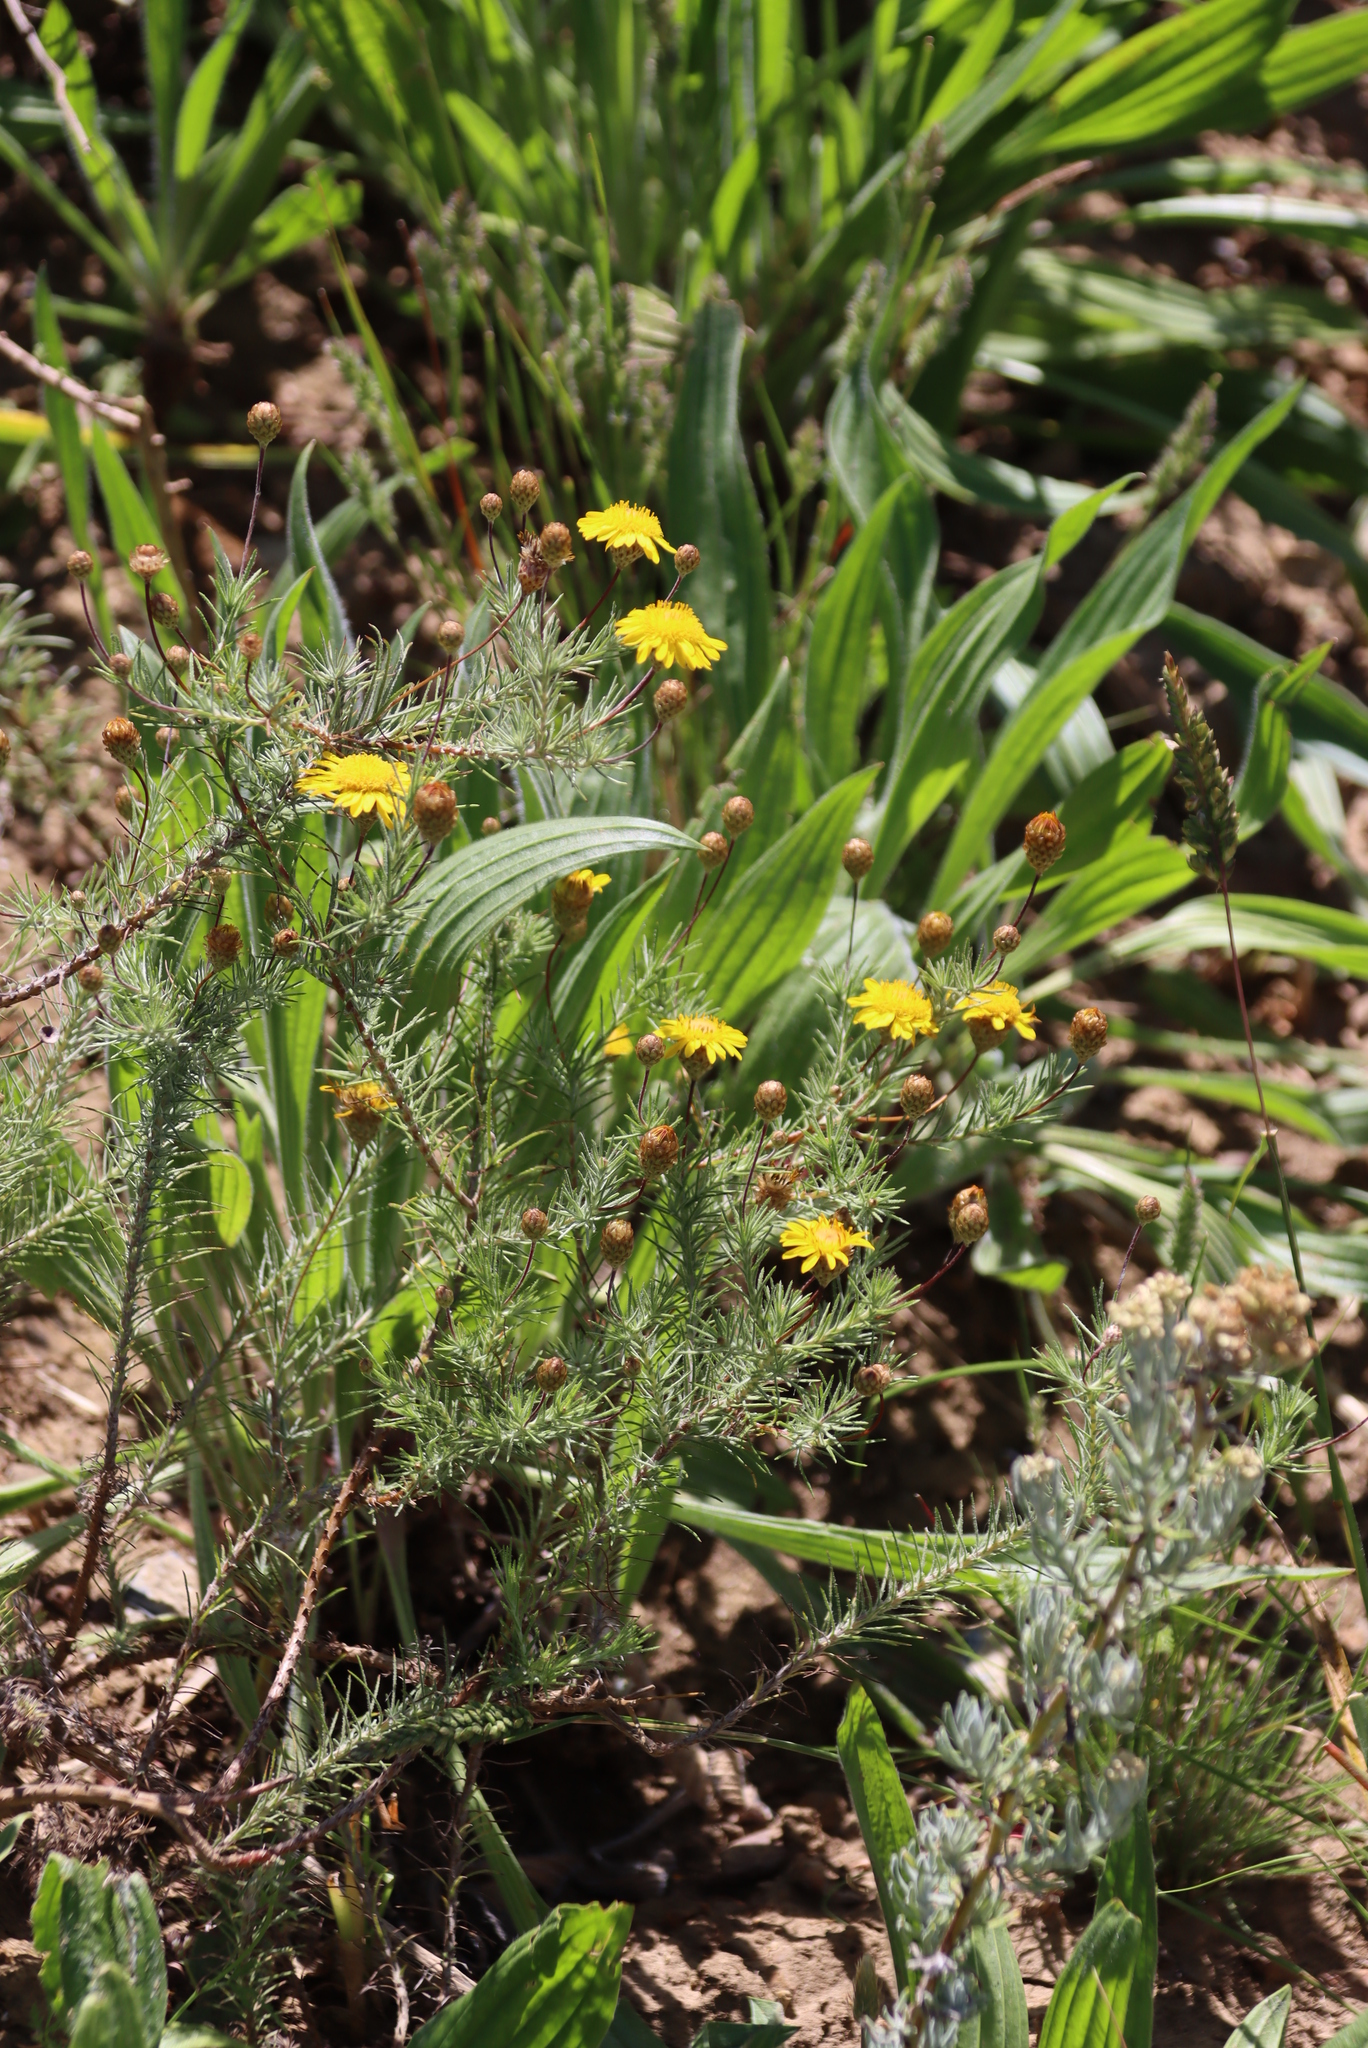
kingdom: Plantae
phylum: Tracheophyta
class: Magnoliopsida
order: Asterales
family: Asteraceae
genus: Leysera
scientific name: Leysera gnaphalodes
